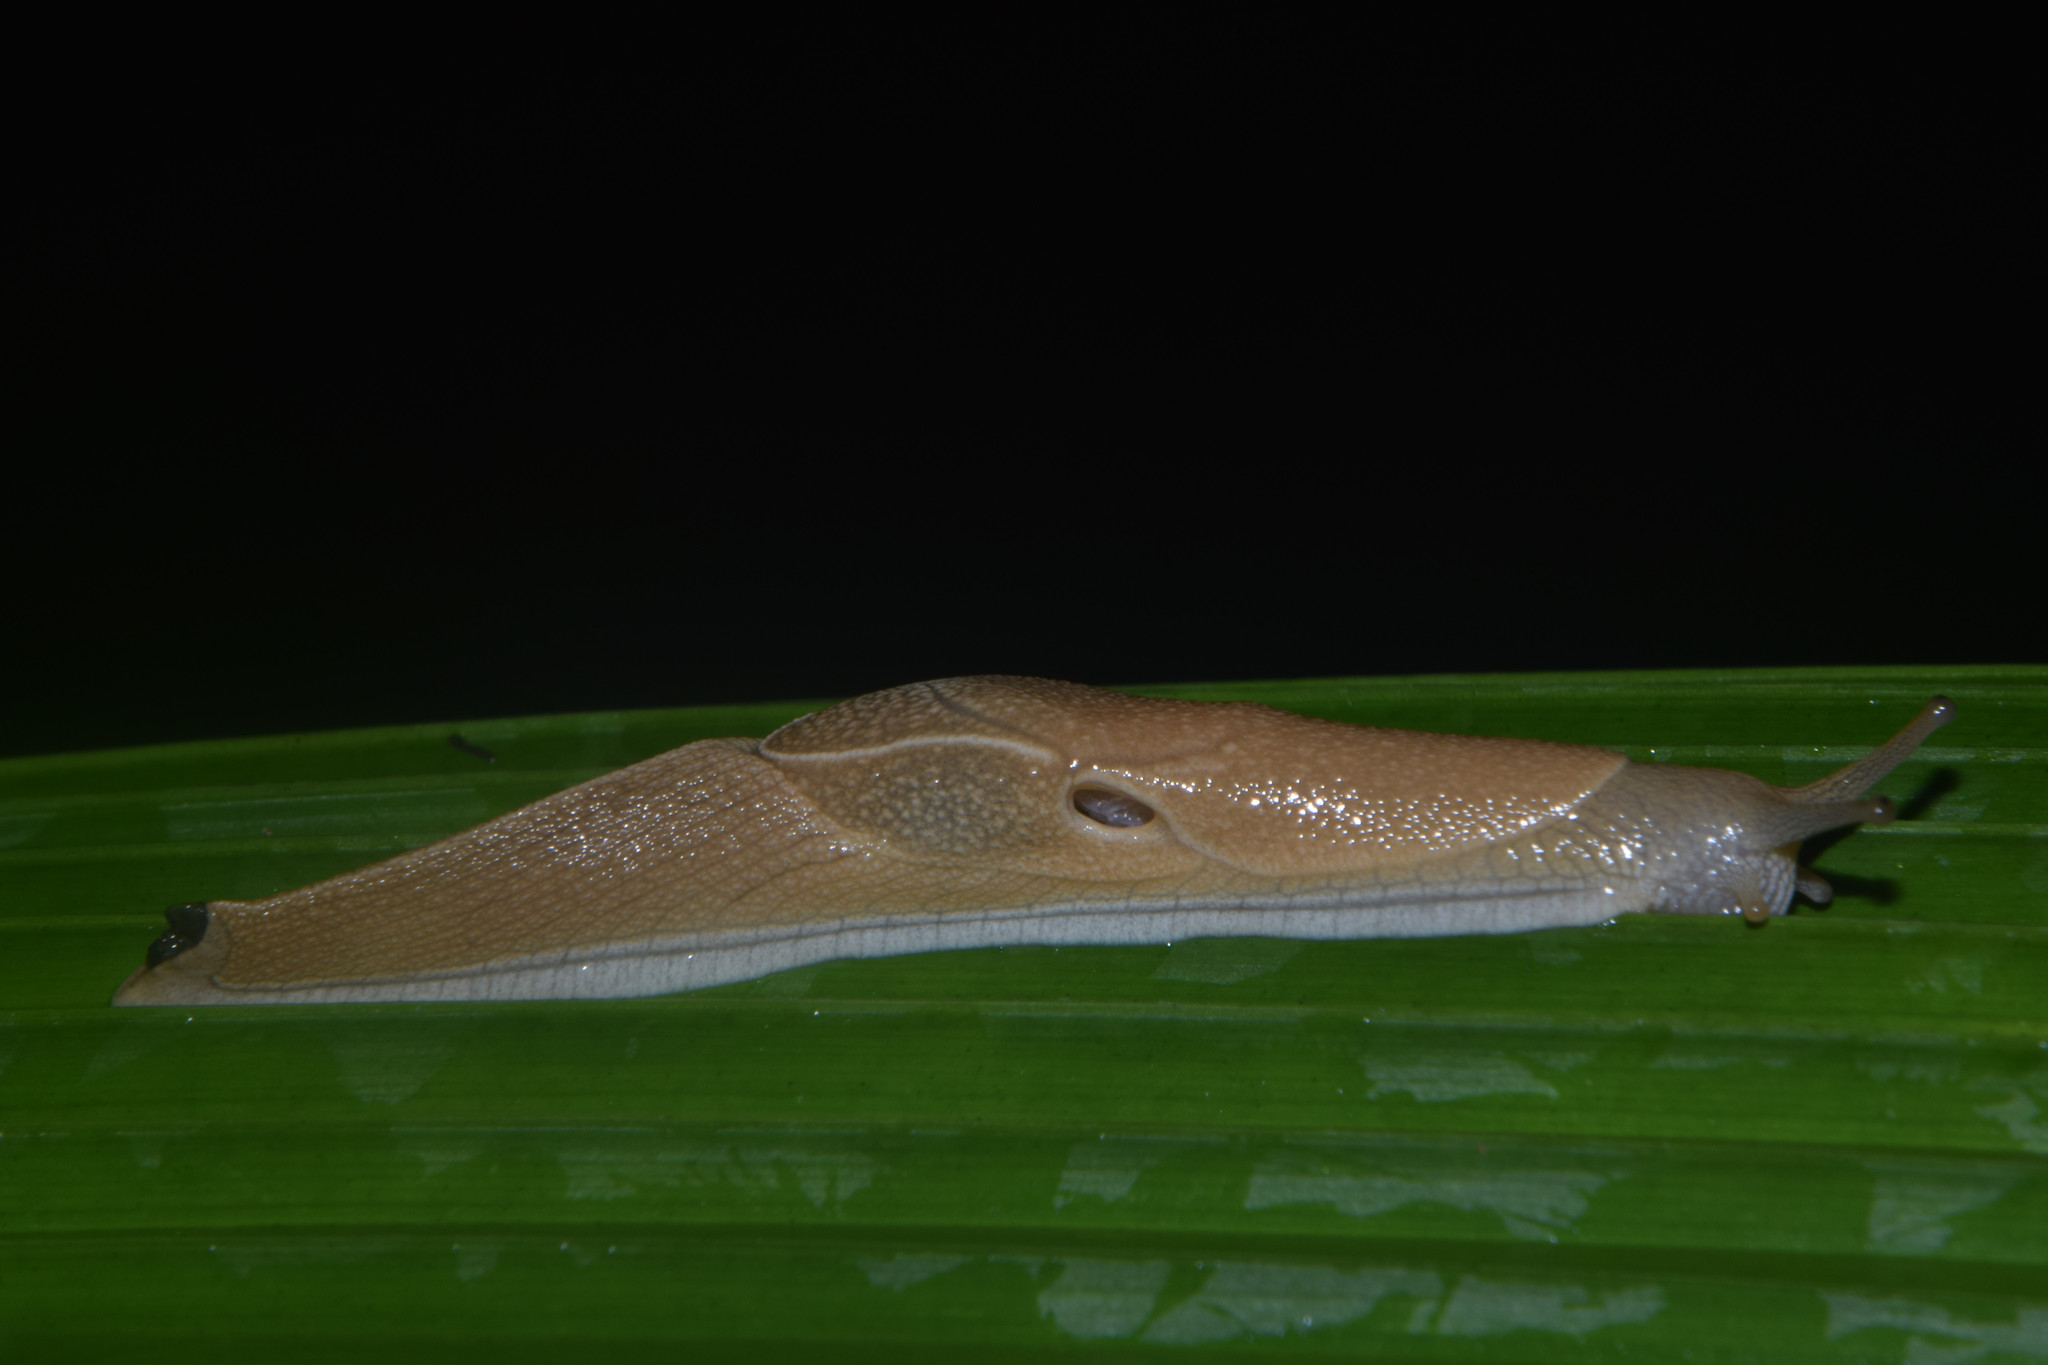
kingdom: Animalia
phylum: Mollusca
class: Gastropoda
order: Stylommatophora
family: Helicarionidae
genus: Girasia
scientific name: Girasia crocea
